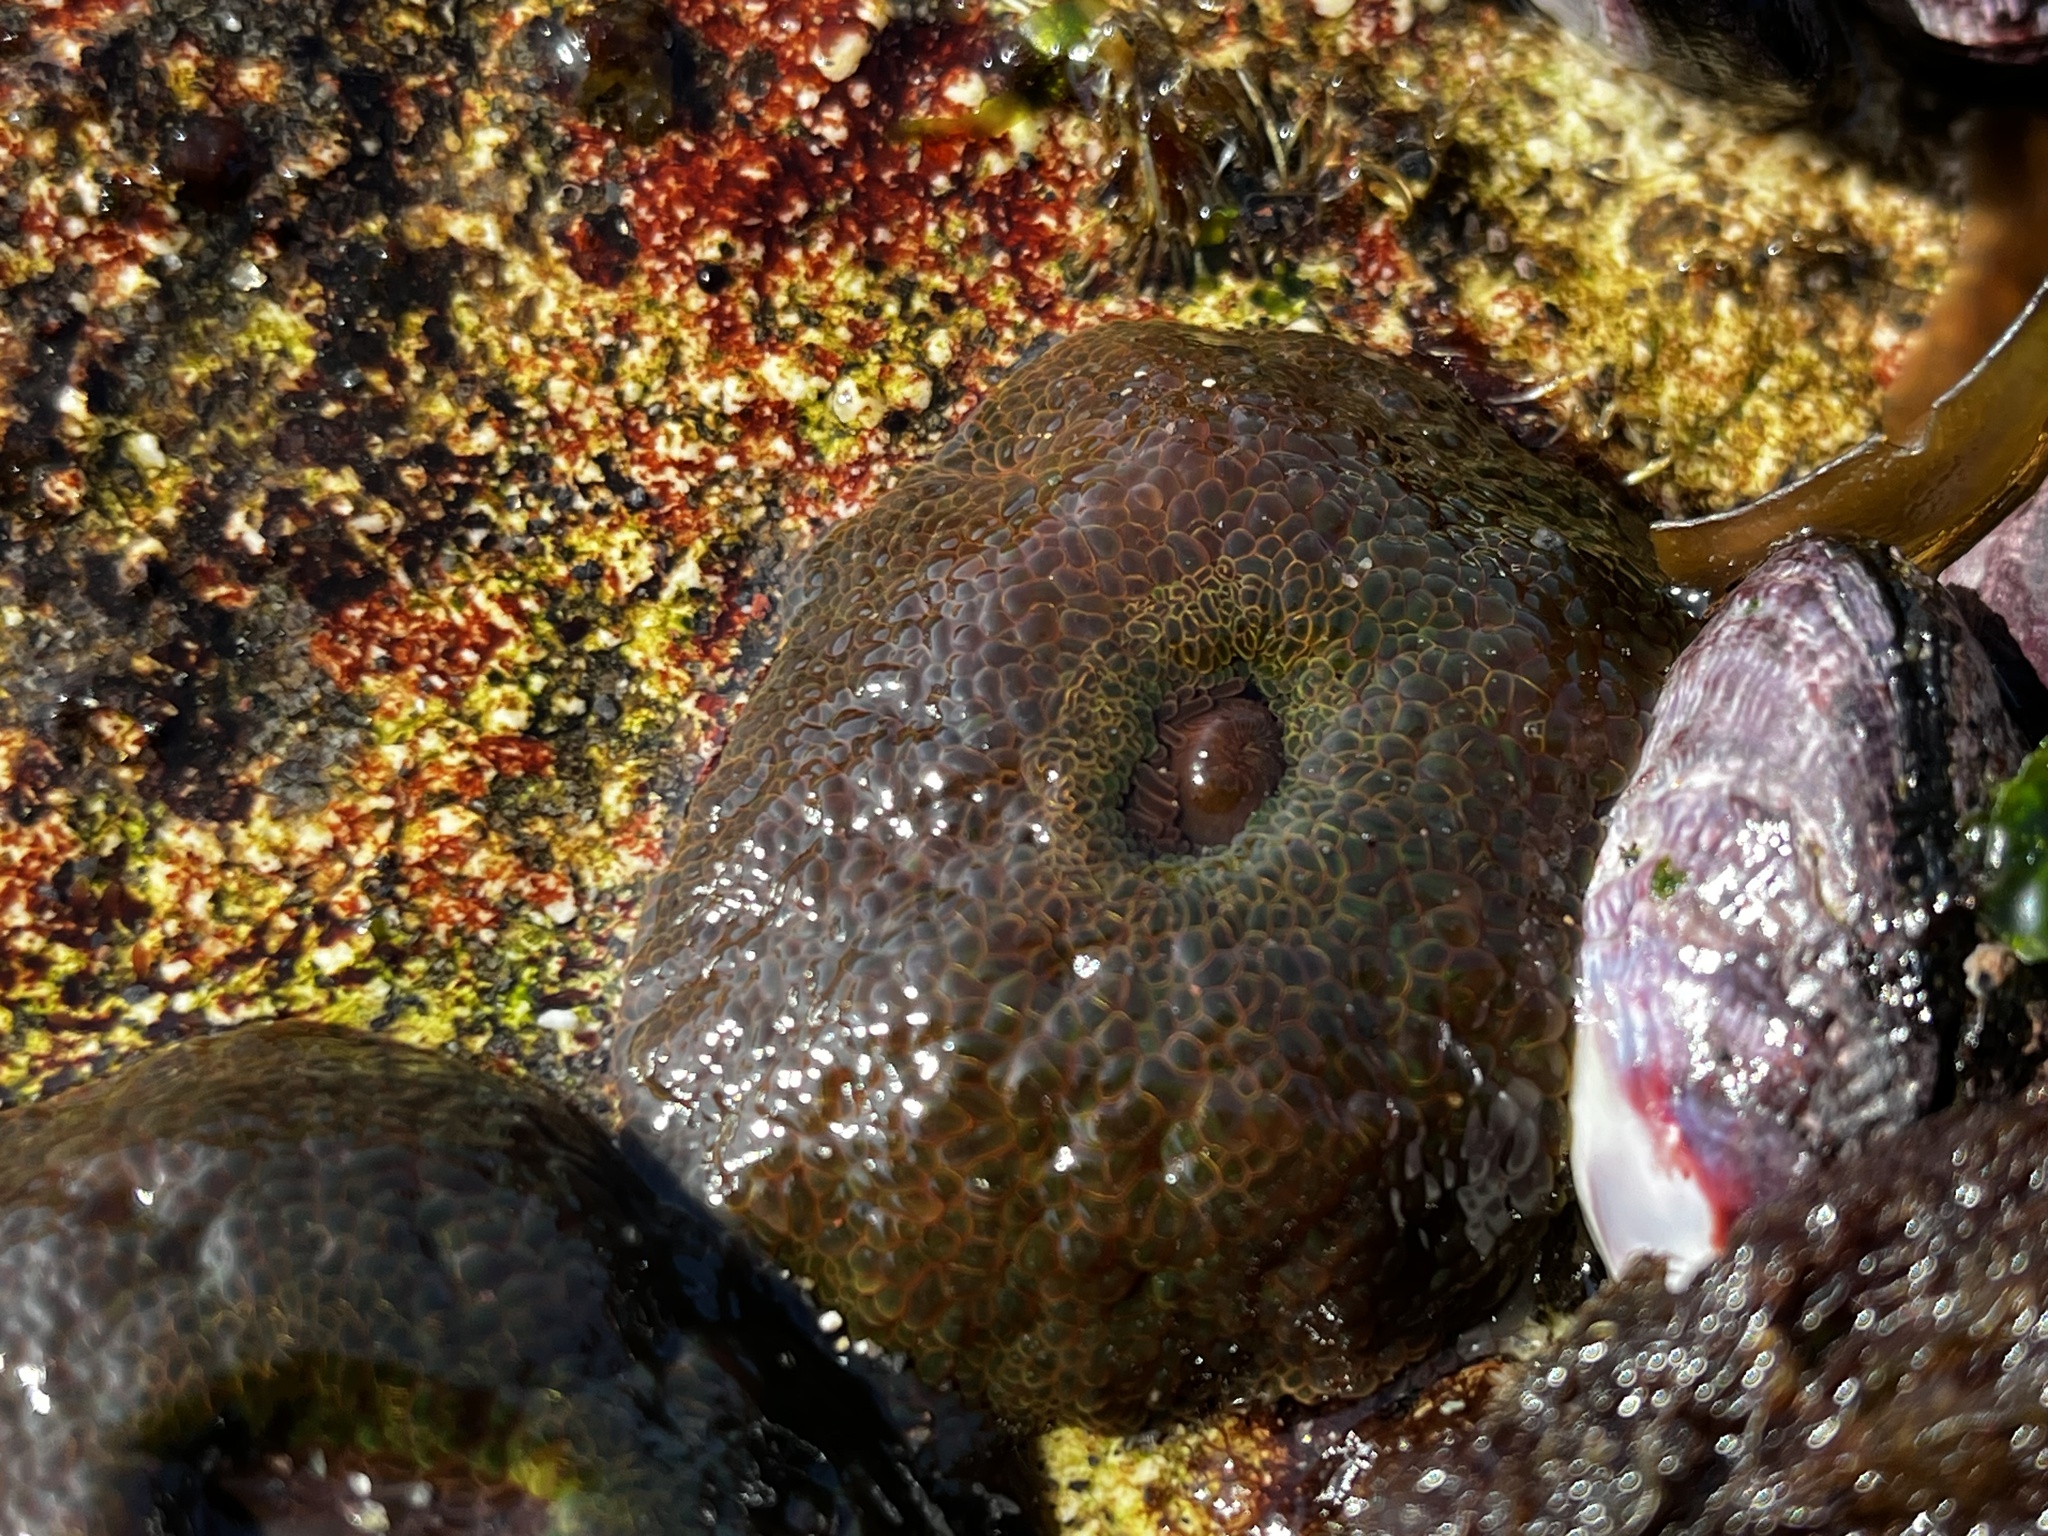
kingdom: Animalia
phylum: Cnidaria
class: Anthozoa
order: Actiniaria
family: Actiniidae
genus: Phymactis
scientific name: Phymactis papillosa
